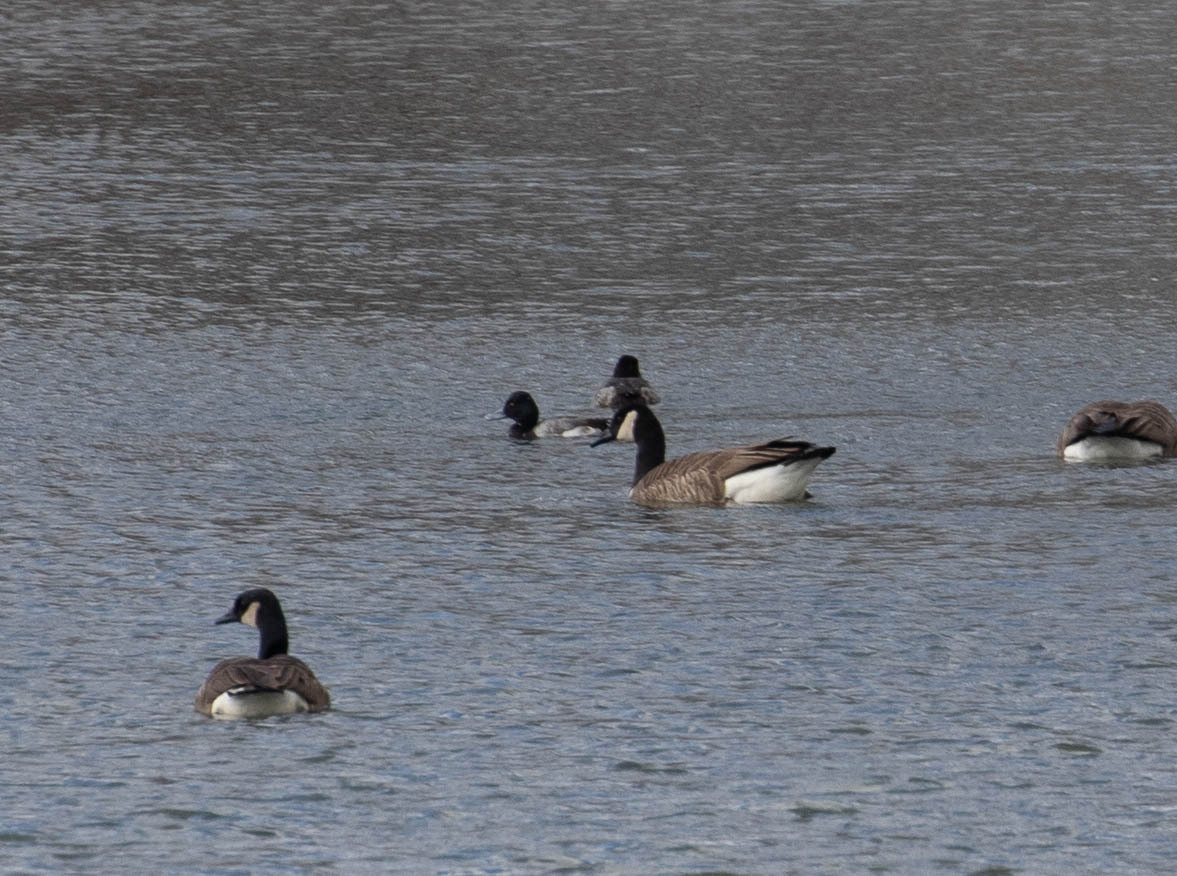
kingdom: Animalia
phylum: Chordata
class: Aves
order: Anseriformes
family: Anatidae
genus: Branta
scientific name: Branta canadensis
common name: Canada goose
